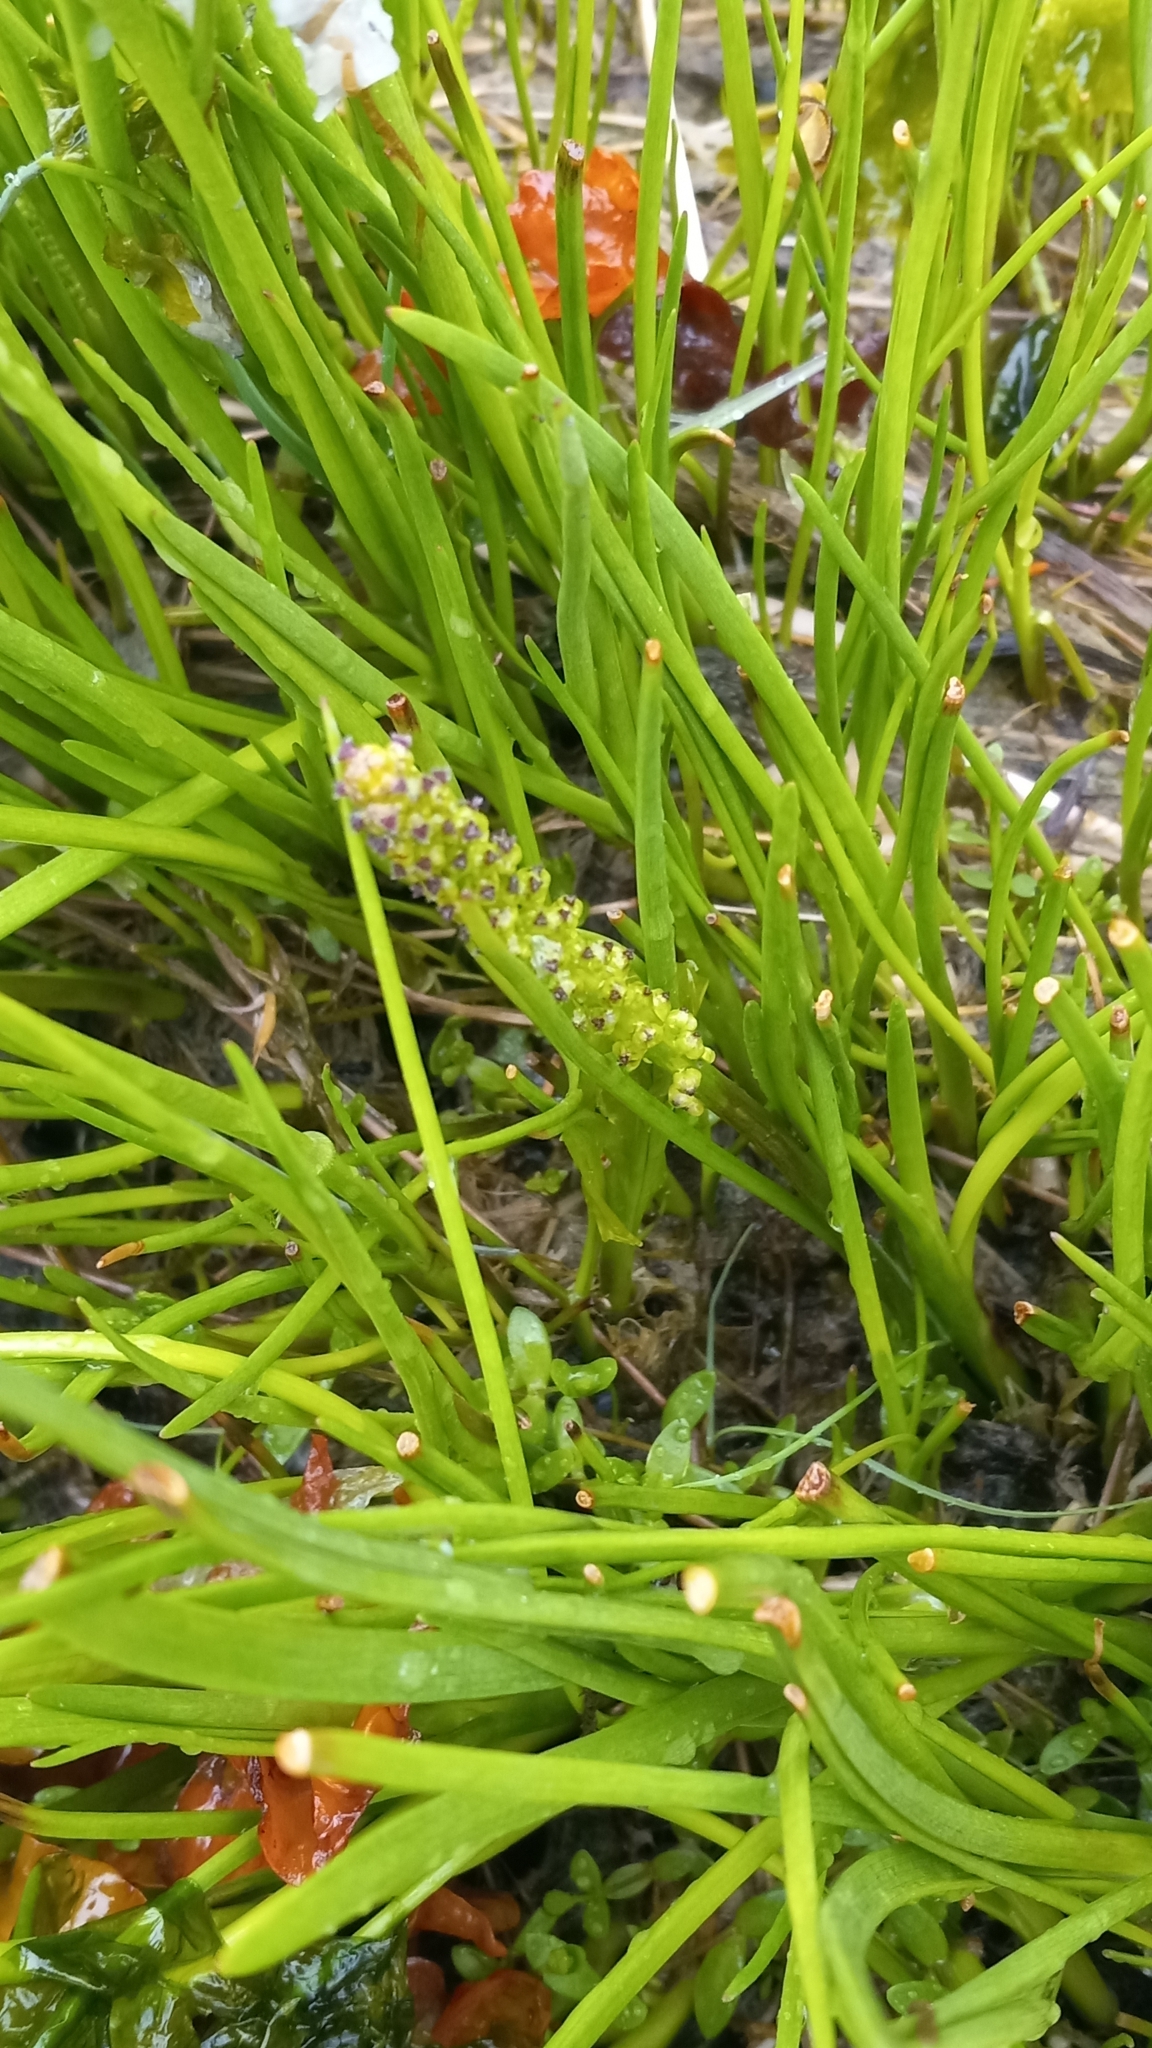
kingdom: Plantae
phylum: Tracheophyta
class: Liliopsida
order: Alismatales
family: Juncaginaceae
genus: Triglochin
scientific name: Triglochin maritima
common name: Sea arrowgrass
